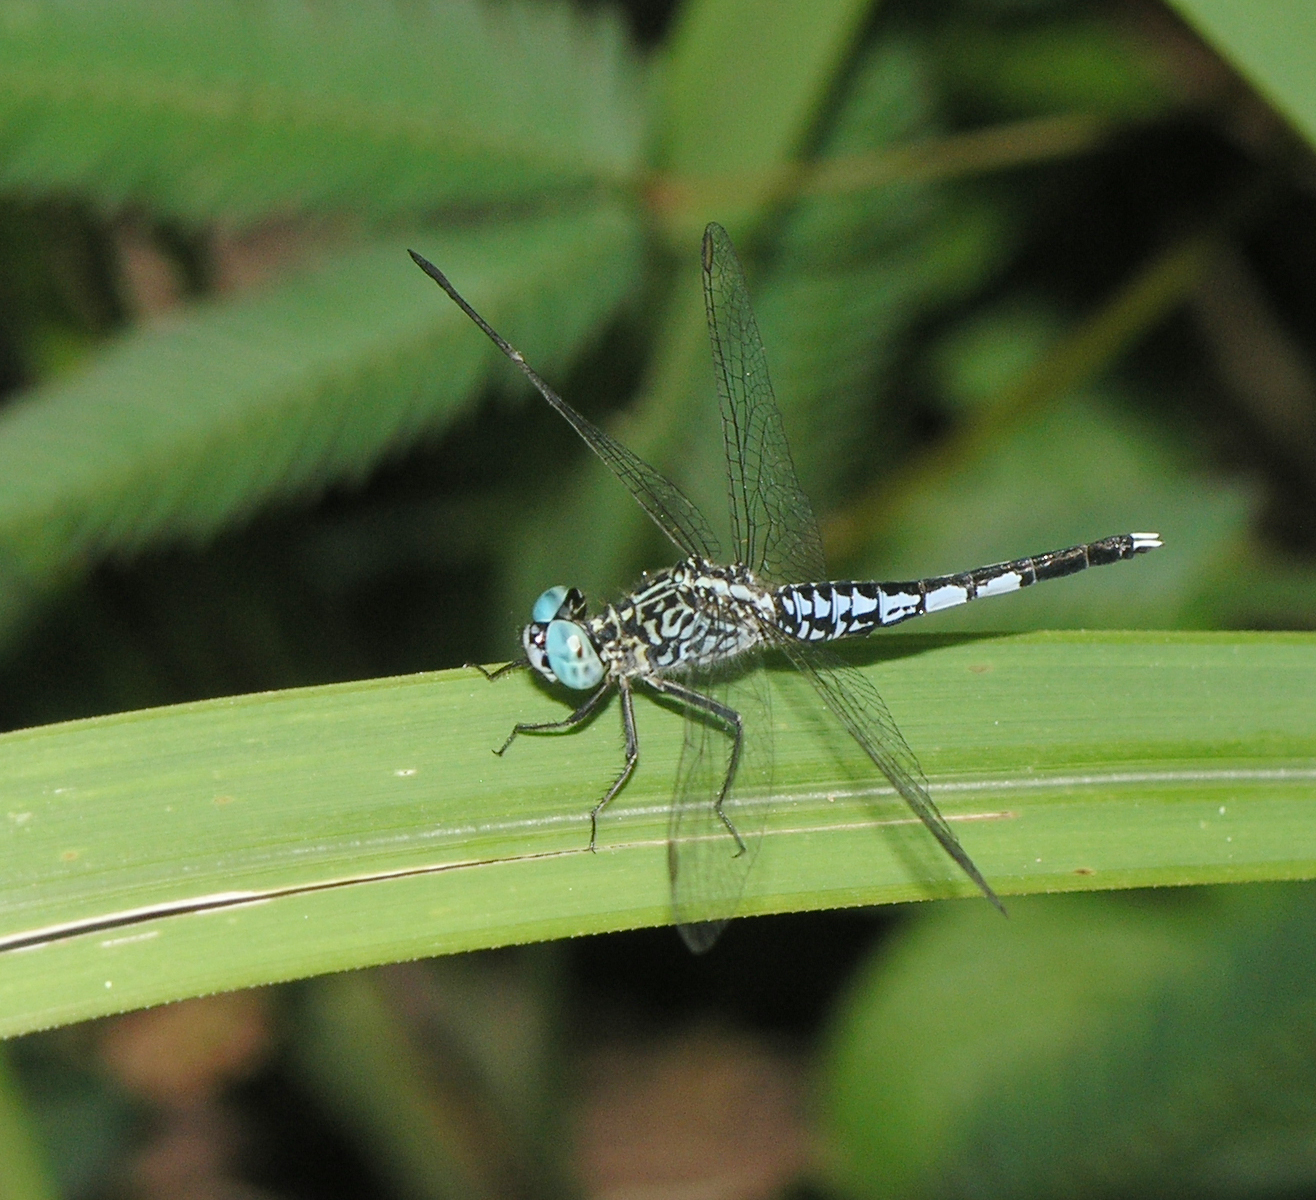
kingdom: Animalia
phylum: Arthropoda
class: Insecta
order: Odonata
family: Libellulidae
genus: Acisoma
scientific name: Acisoma panorpoides
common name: Asian pintail
